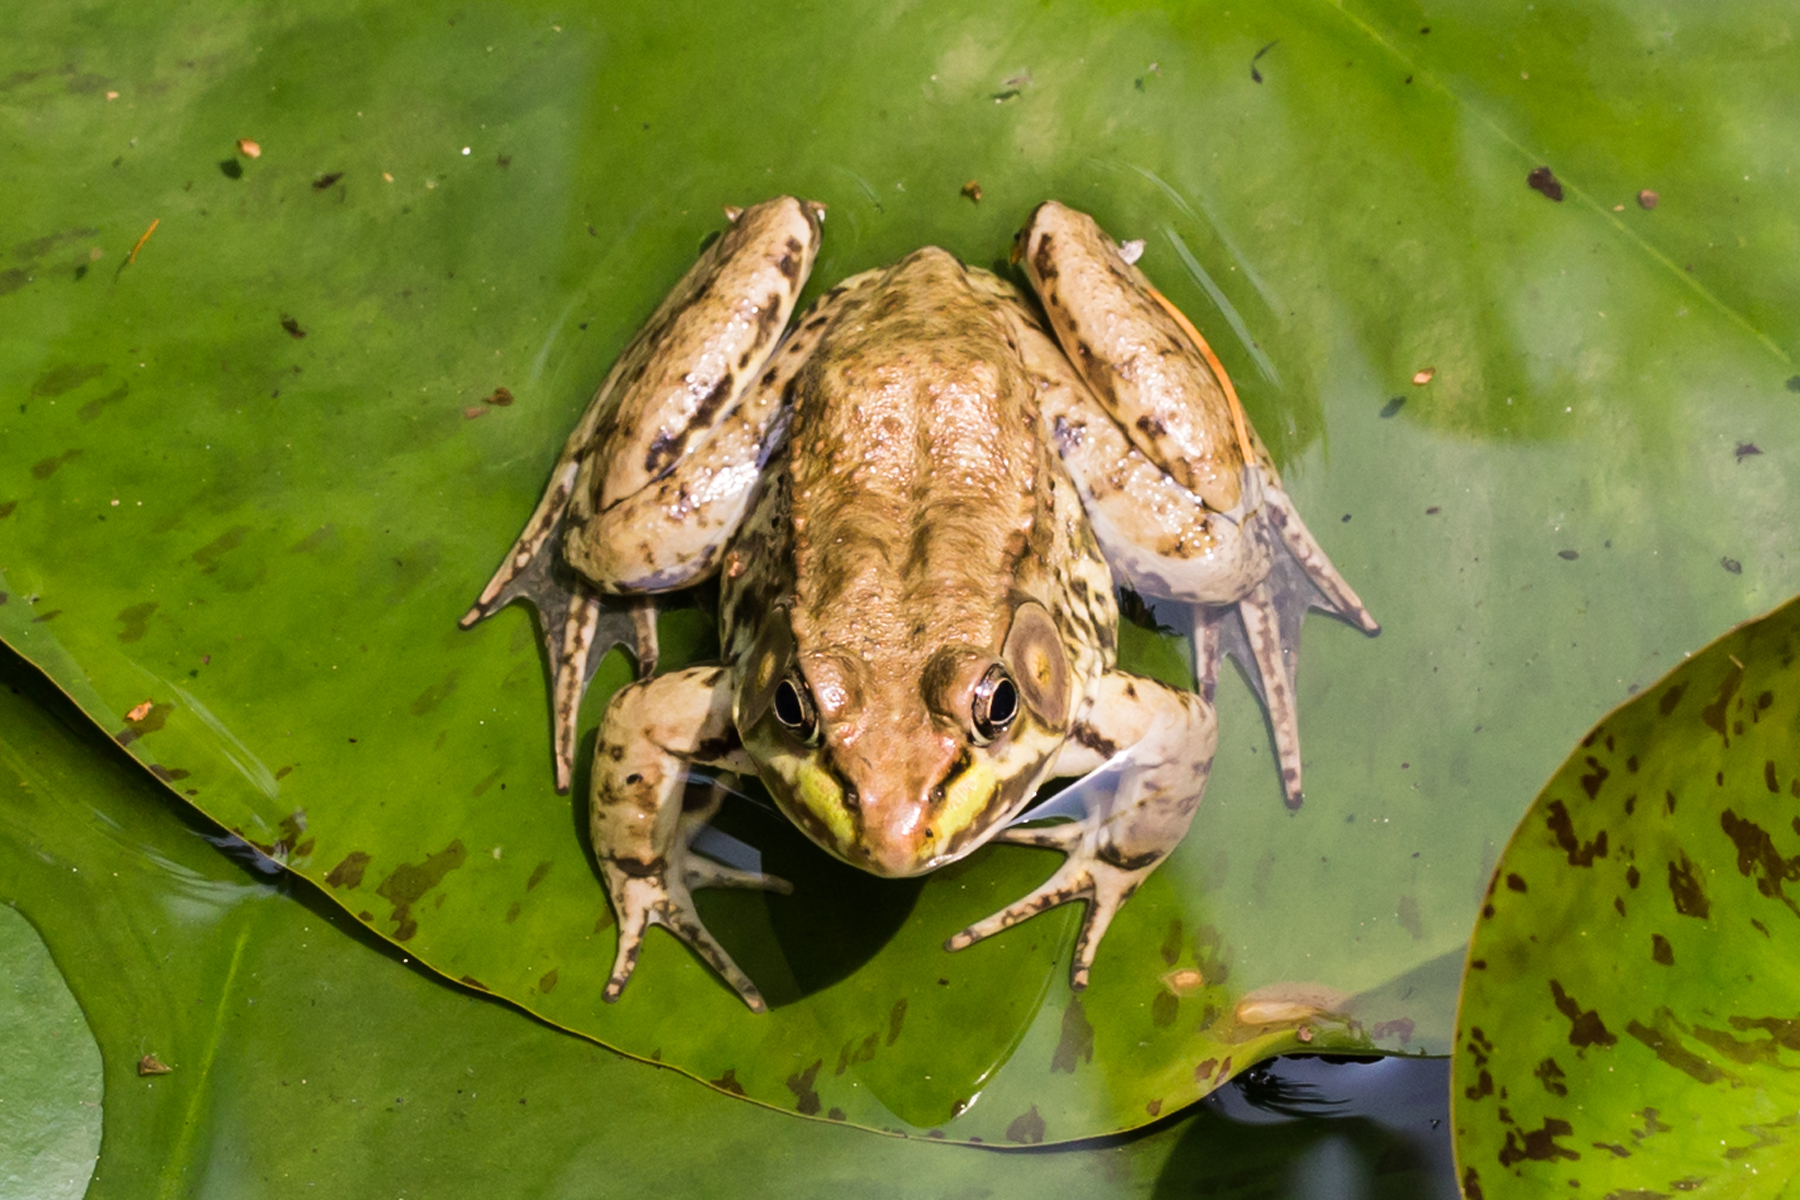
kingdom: Animalia
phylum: Chordata
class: Amphibia
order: Anura
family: Ranidae
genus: Lithobates
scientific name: Lithobates clamitans
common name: Green frog
